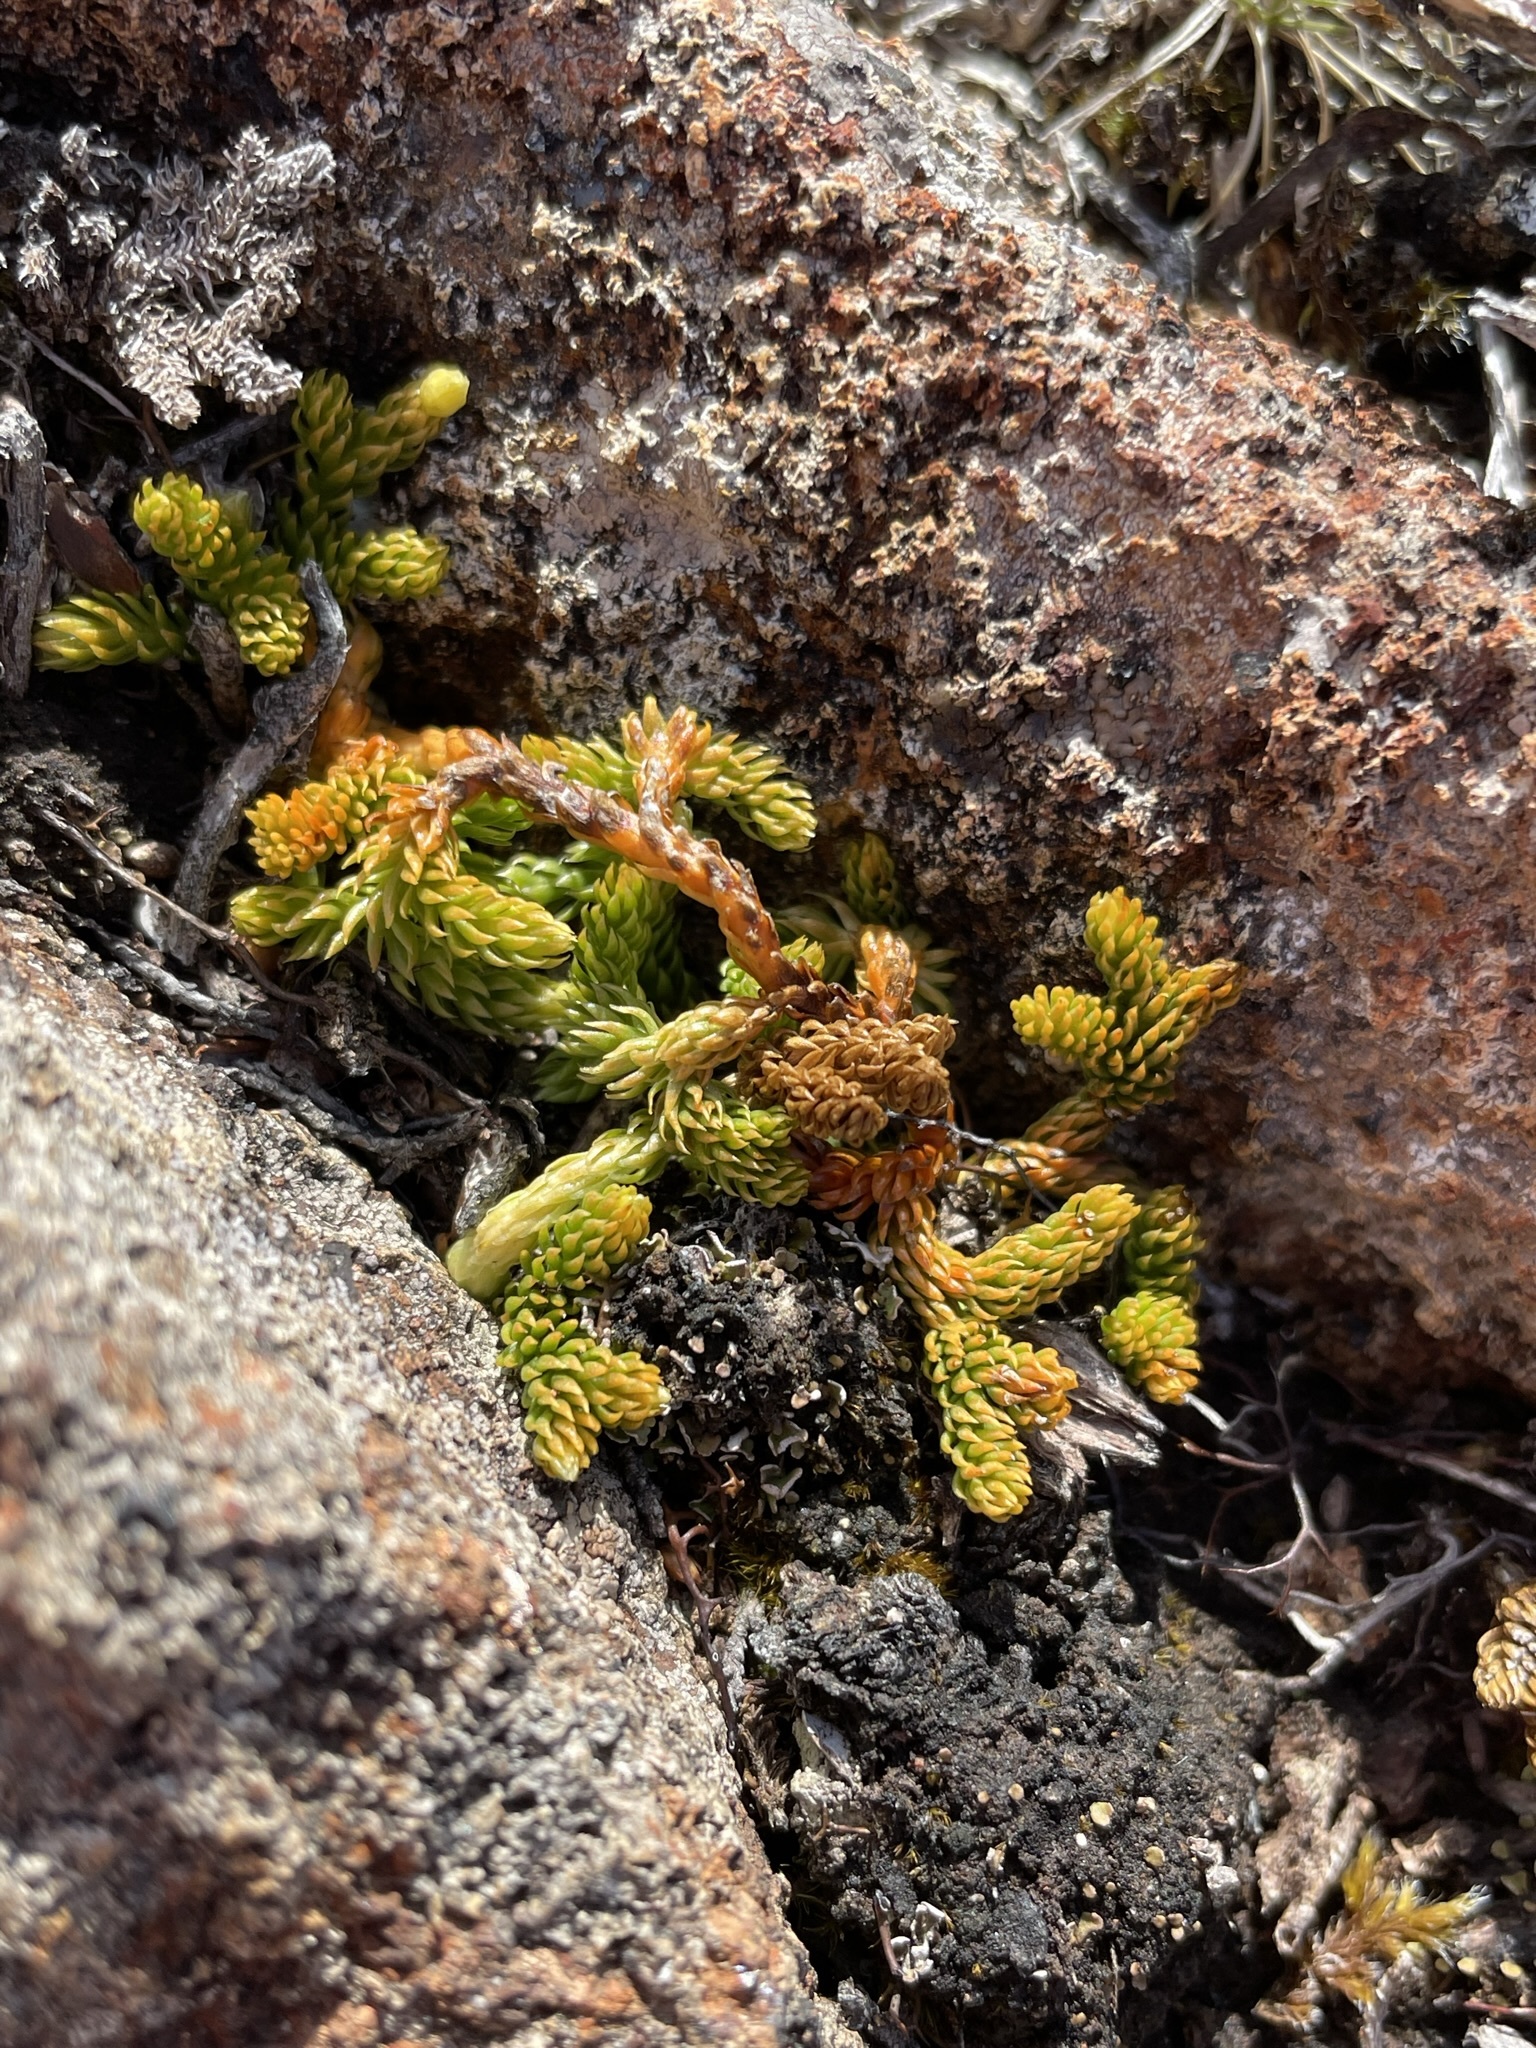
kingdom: Plantae
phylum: Tracheophyta
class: Lycopodiopsida
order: Lycopodiales
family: Lycopodiaceae
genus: Austrolycopodium
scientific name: Austrolycopodium fastigiatum
